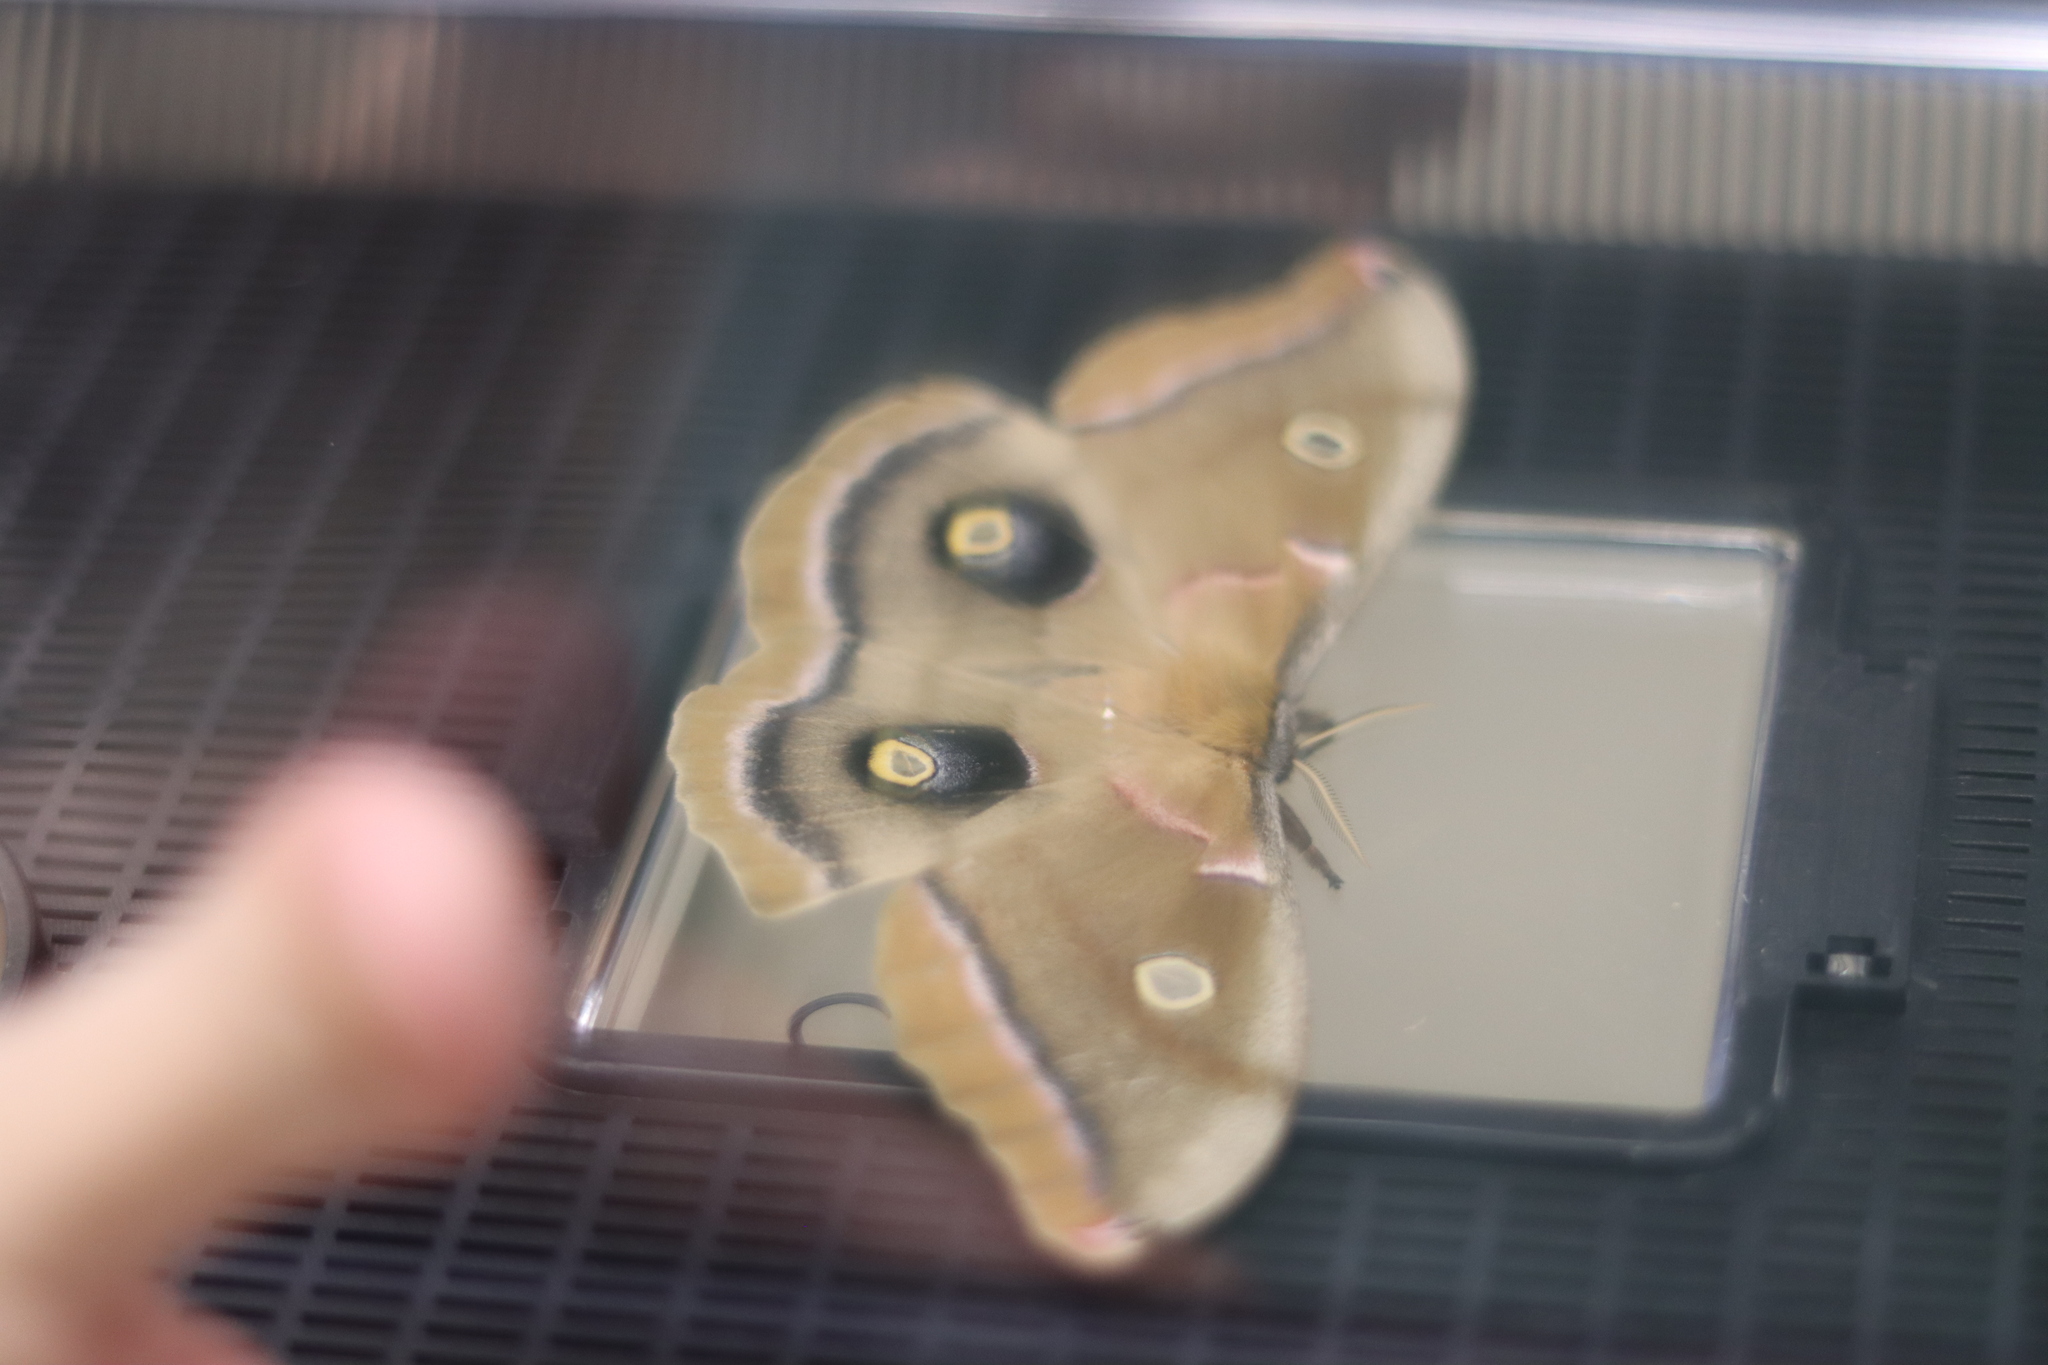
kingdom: Animalia
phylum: Arthropoda
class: Insecta
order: Lepidoptera
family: Saturniidae
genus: Antheraea
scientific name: Antheraea polyphemus
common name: Polyphemus moth
